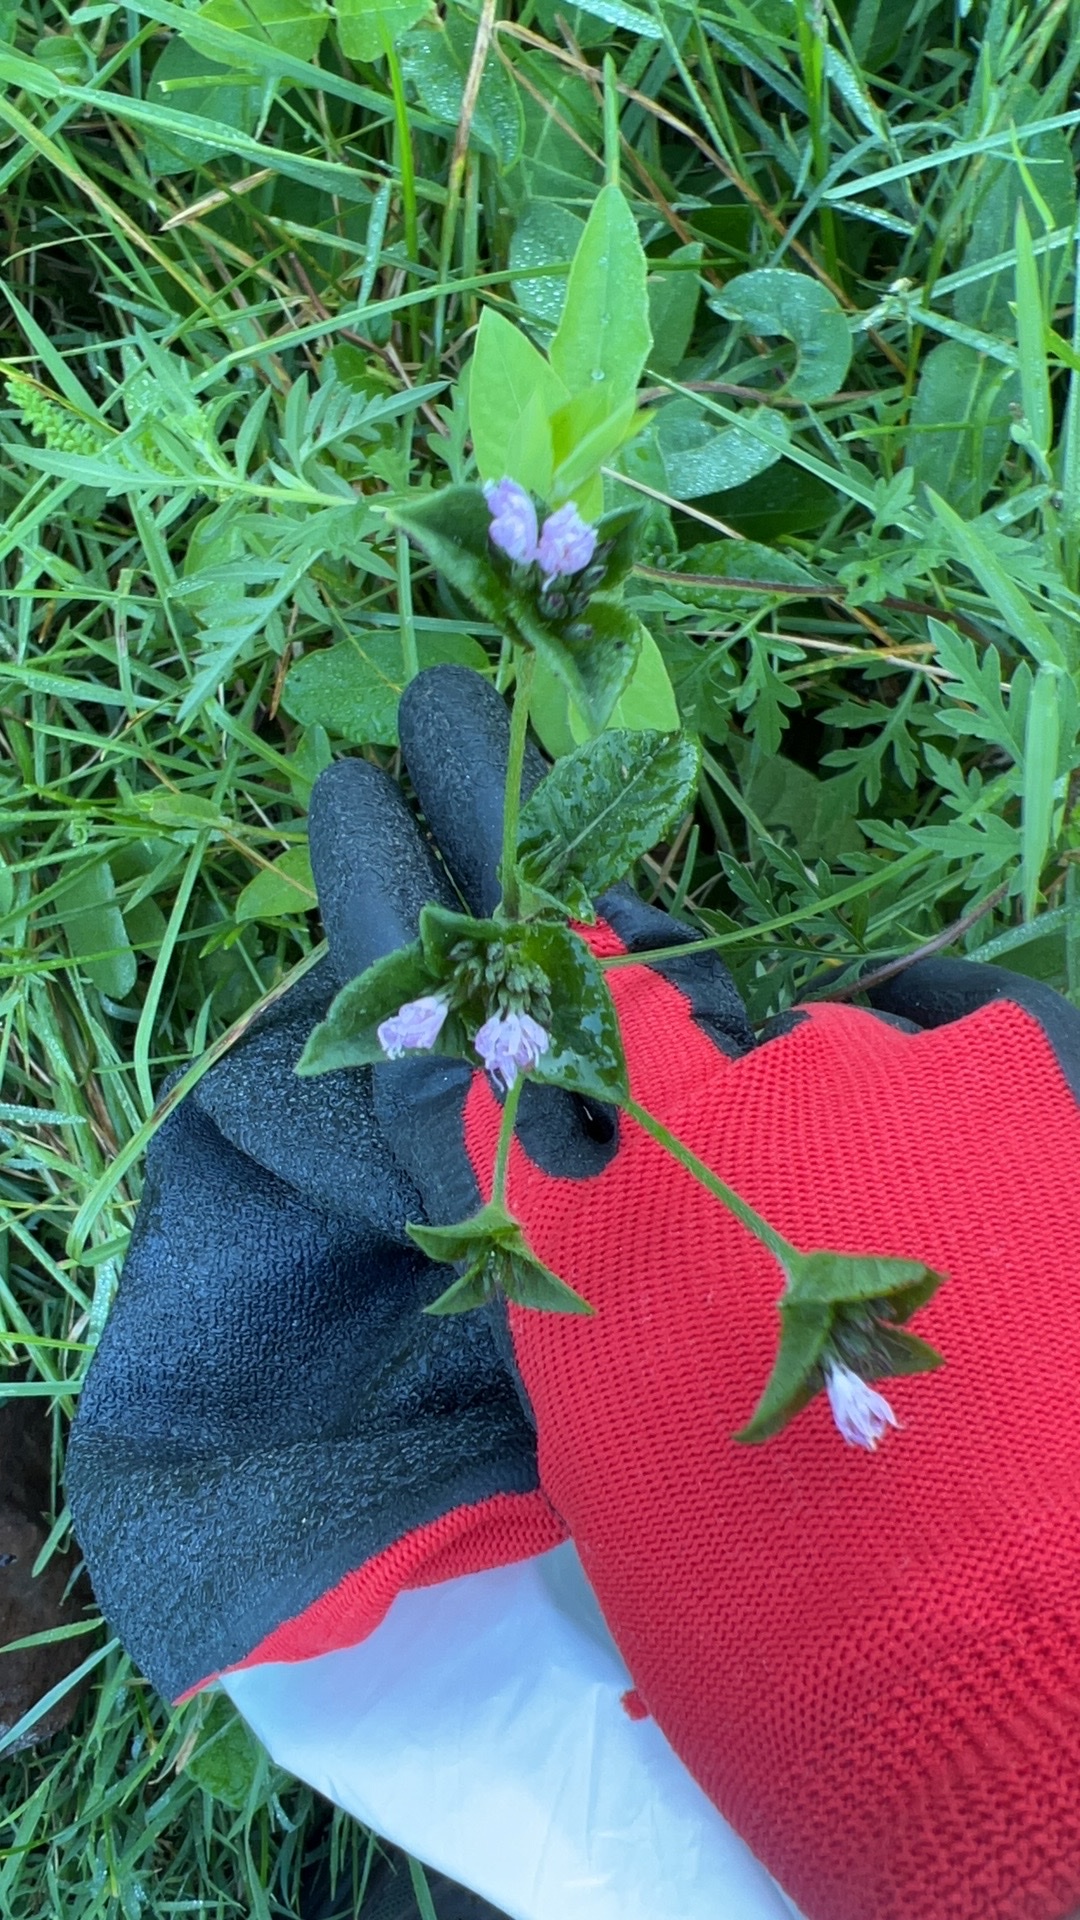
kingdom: Plantae
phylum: Tracheophyta
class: Magnoliopsida
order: Asterales
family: Asteraceae
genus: Elephantopus
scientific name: Elephantopus carolinianus
